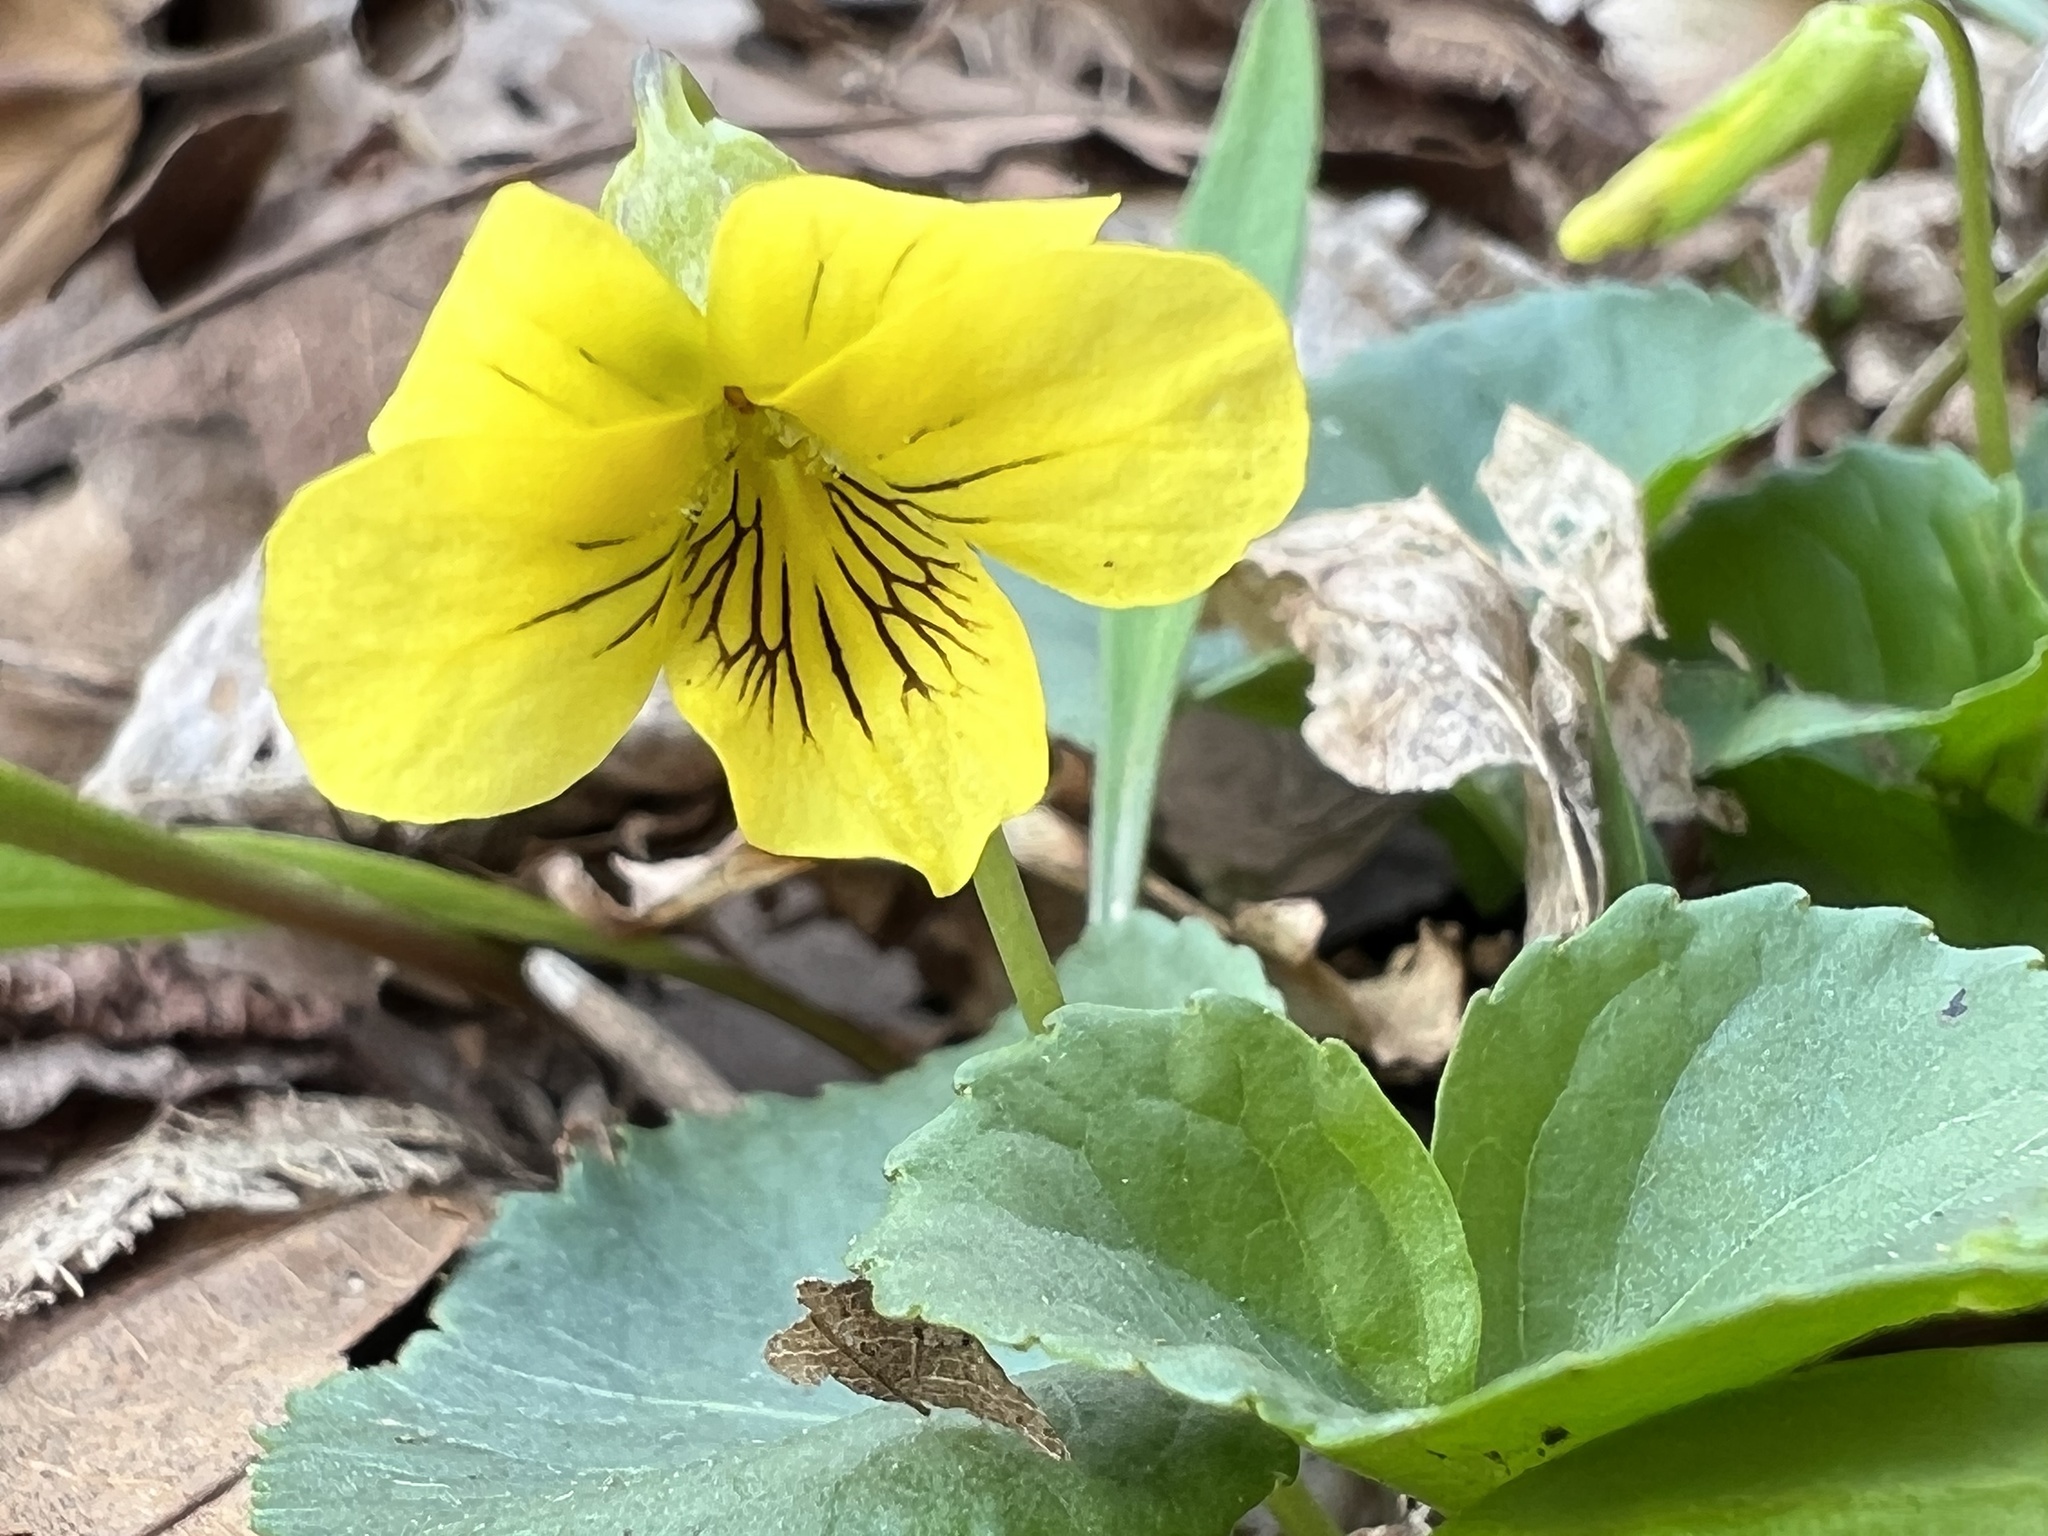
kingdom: Plantae
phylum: Tracheophyta
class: Magnoliopsida
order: Malpighiales
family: Violaceae
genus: Viola
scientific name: Viola eriocarpa
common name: Smooth yellow violet
